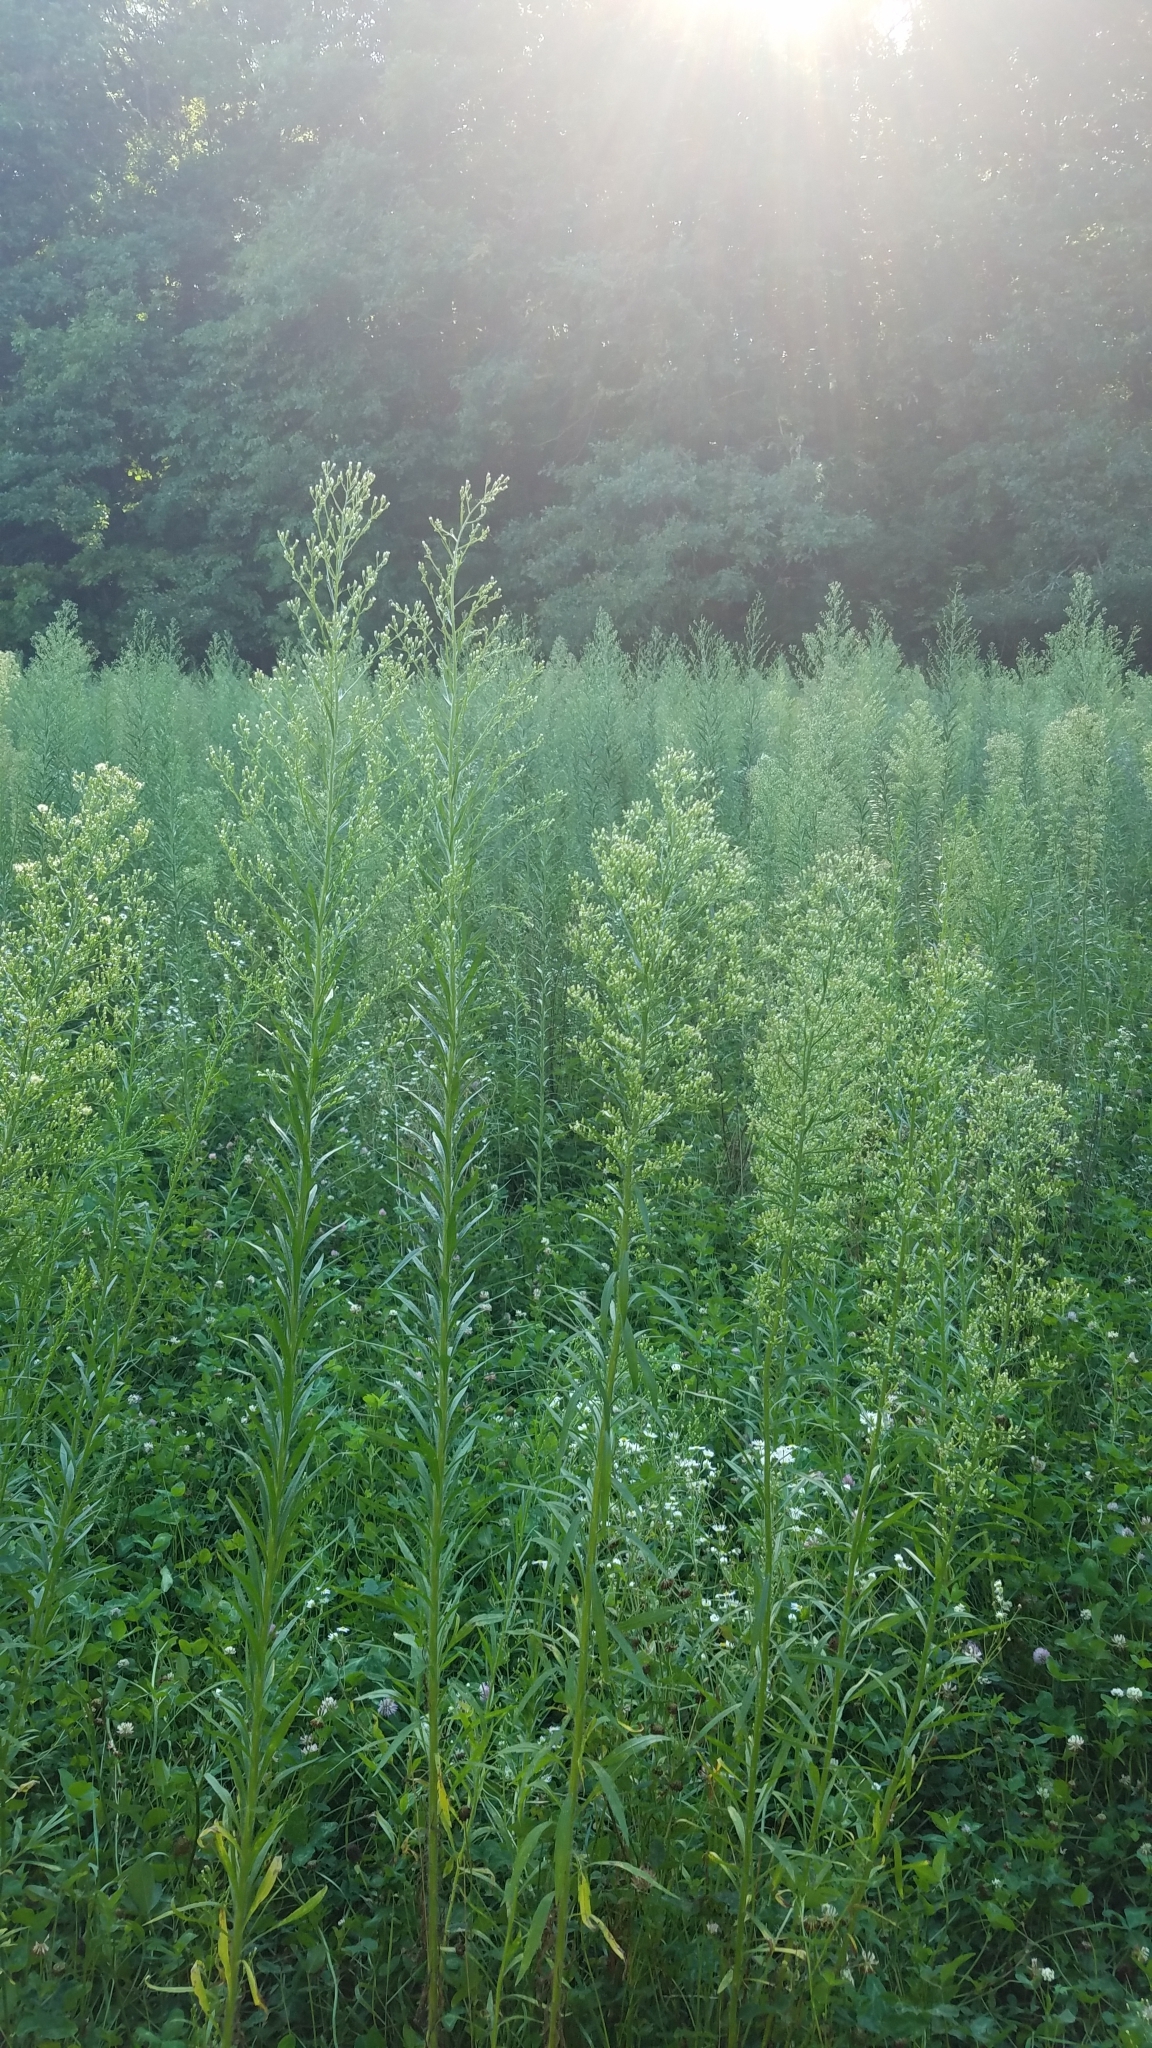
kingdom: Plantae
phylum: Tracheophyta
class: Magnoliopsida
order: Asterales
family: Asteraceae
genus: Erigeron
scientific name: Erigeron canadensis
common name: Canadian fleabane
